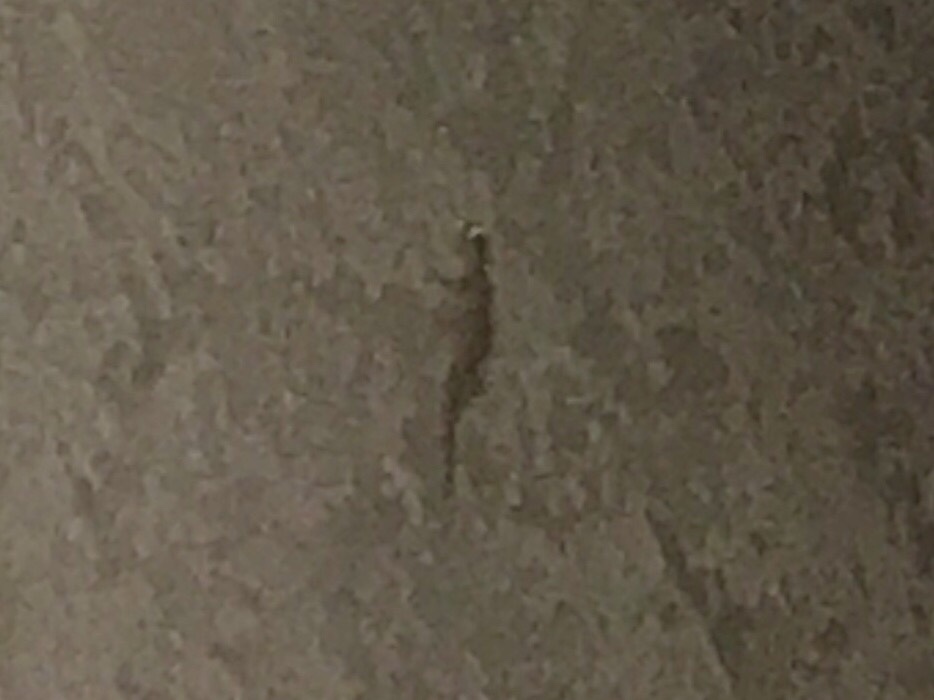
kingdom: Animalia
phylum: Chordata
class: Squamata
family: Gekkonidae
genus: Hemidactylus
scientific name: Hemidactylus turcicus
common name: Turkish gecko
